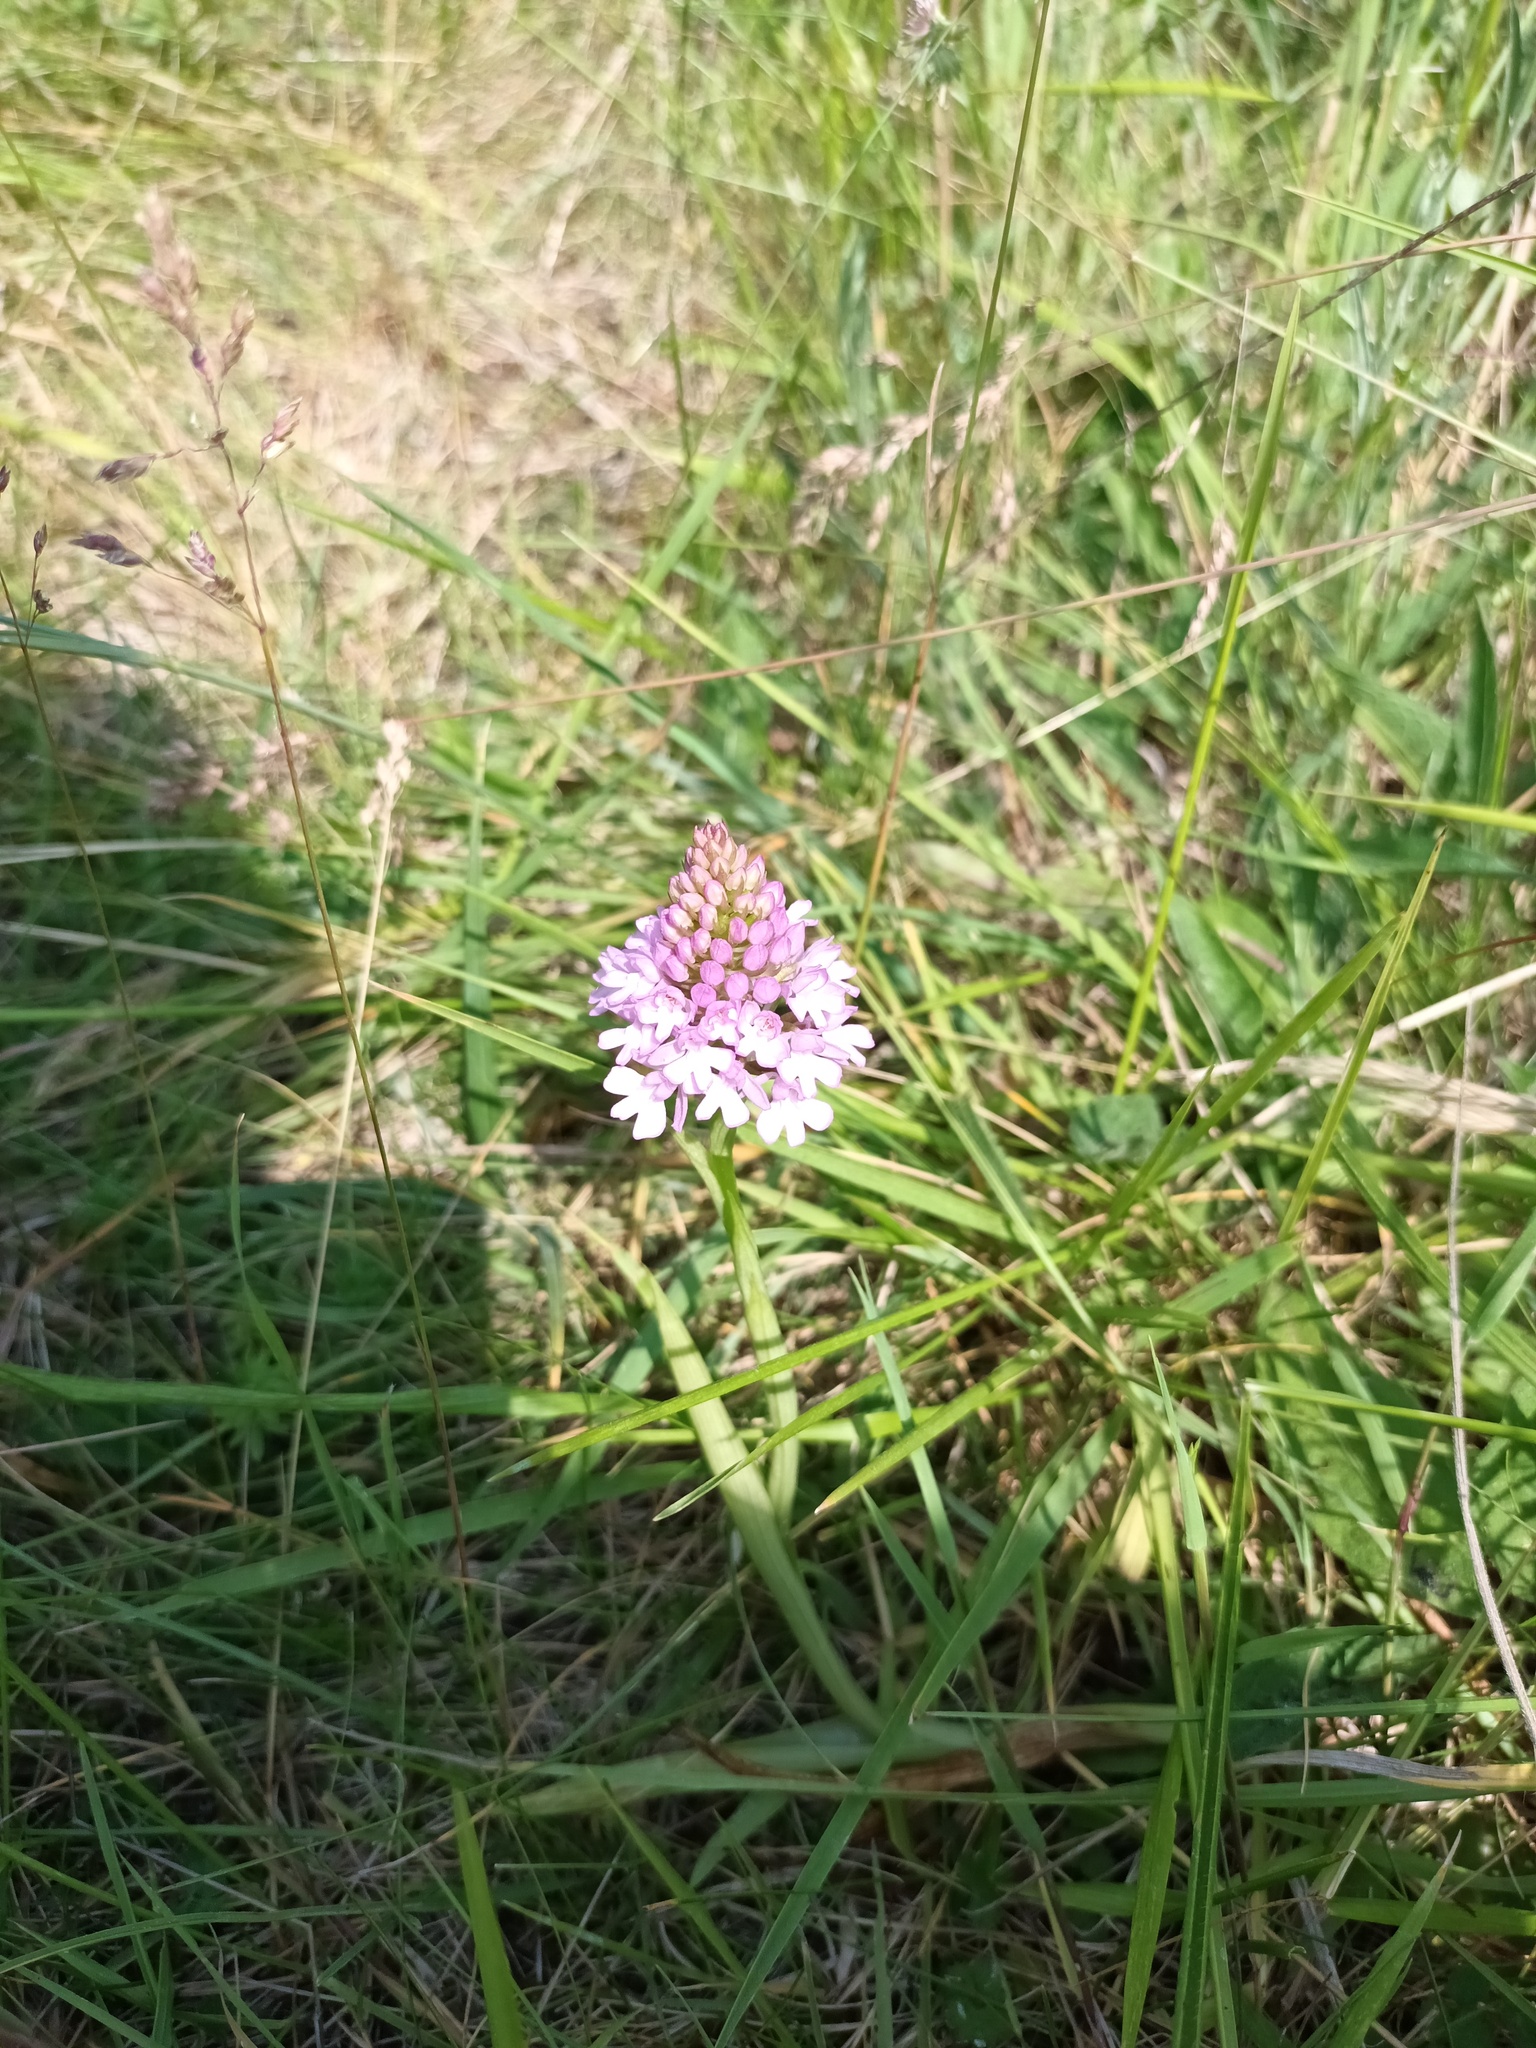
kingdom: Plantae
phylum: Tracheophyta
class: Liliopsida
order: Asparagales
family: Orchidaceae
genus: Anacamptis
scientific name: Anacamptis pyramidalis
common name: Pyramidal orchid
